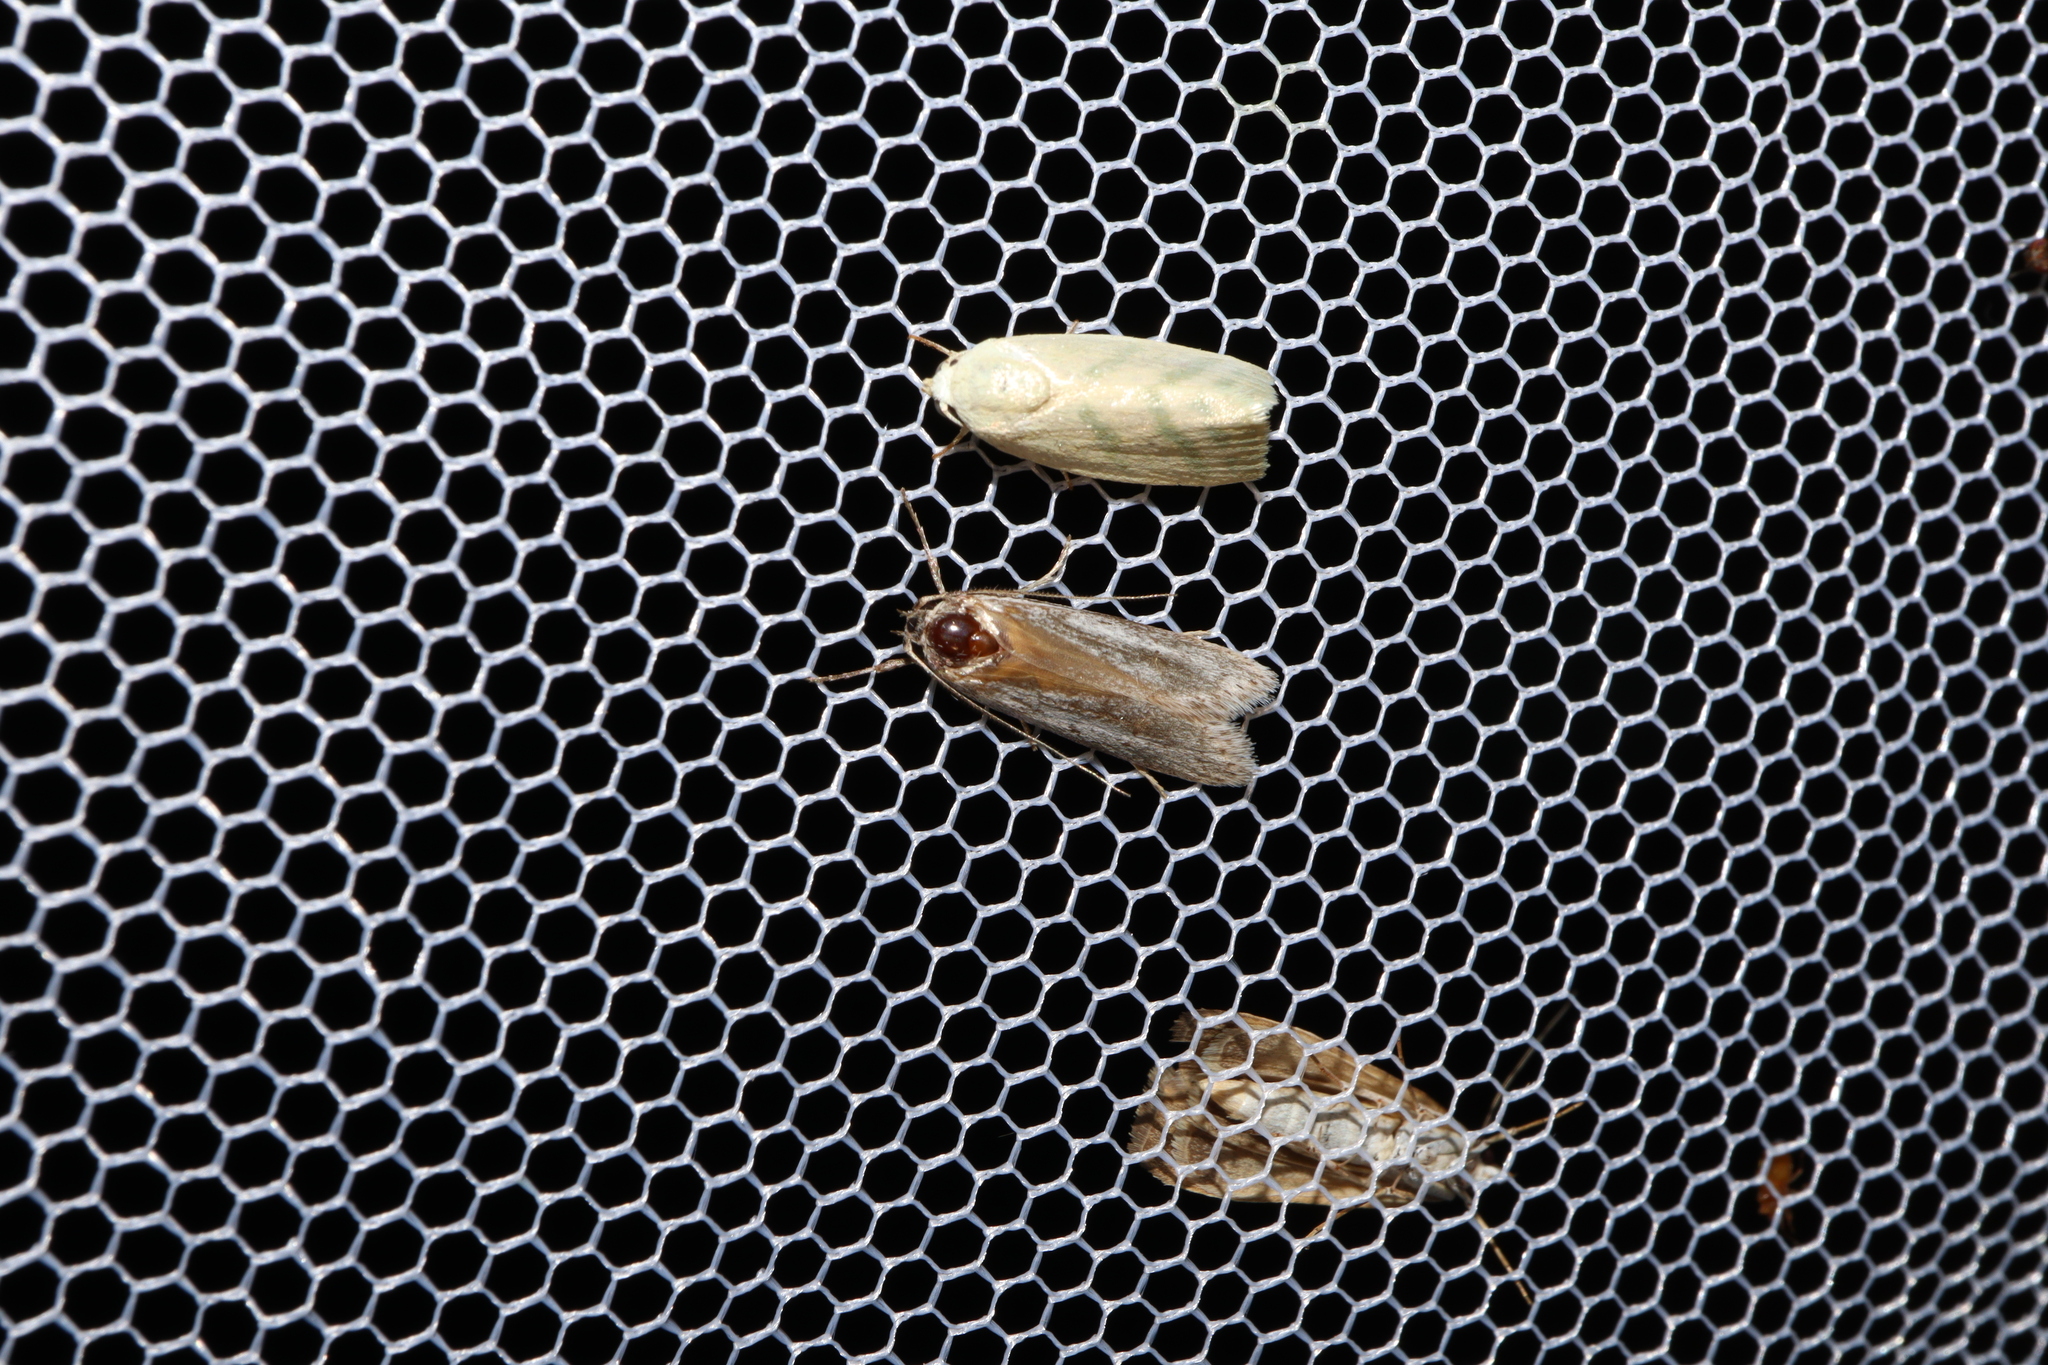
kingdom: Animalia
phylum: Arthropoda
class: Insecta
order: Lepidoptera
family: Nolidae
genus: Earias
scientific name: Earias paralella
